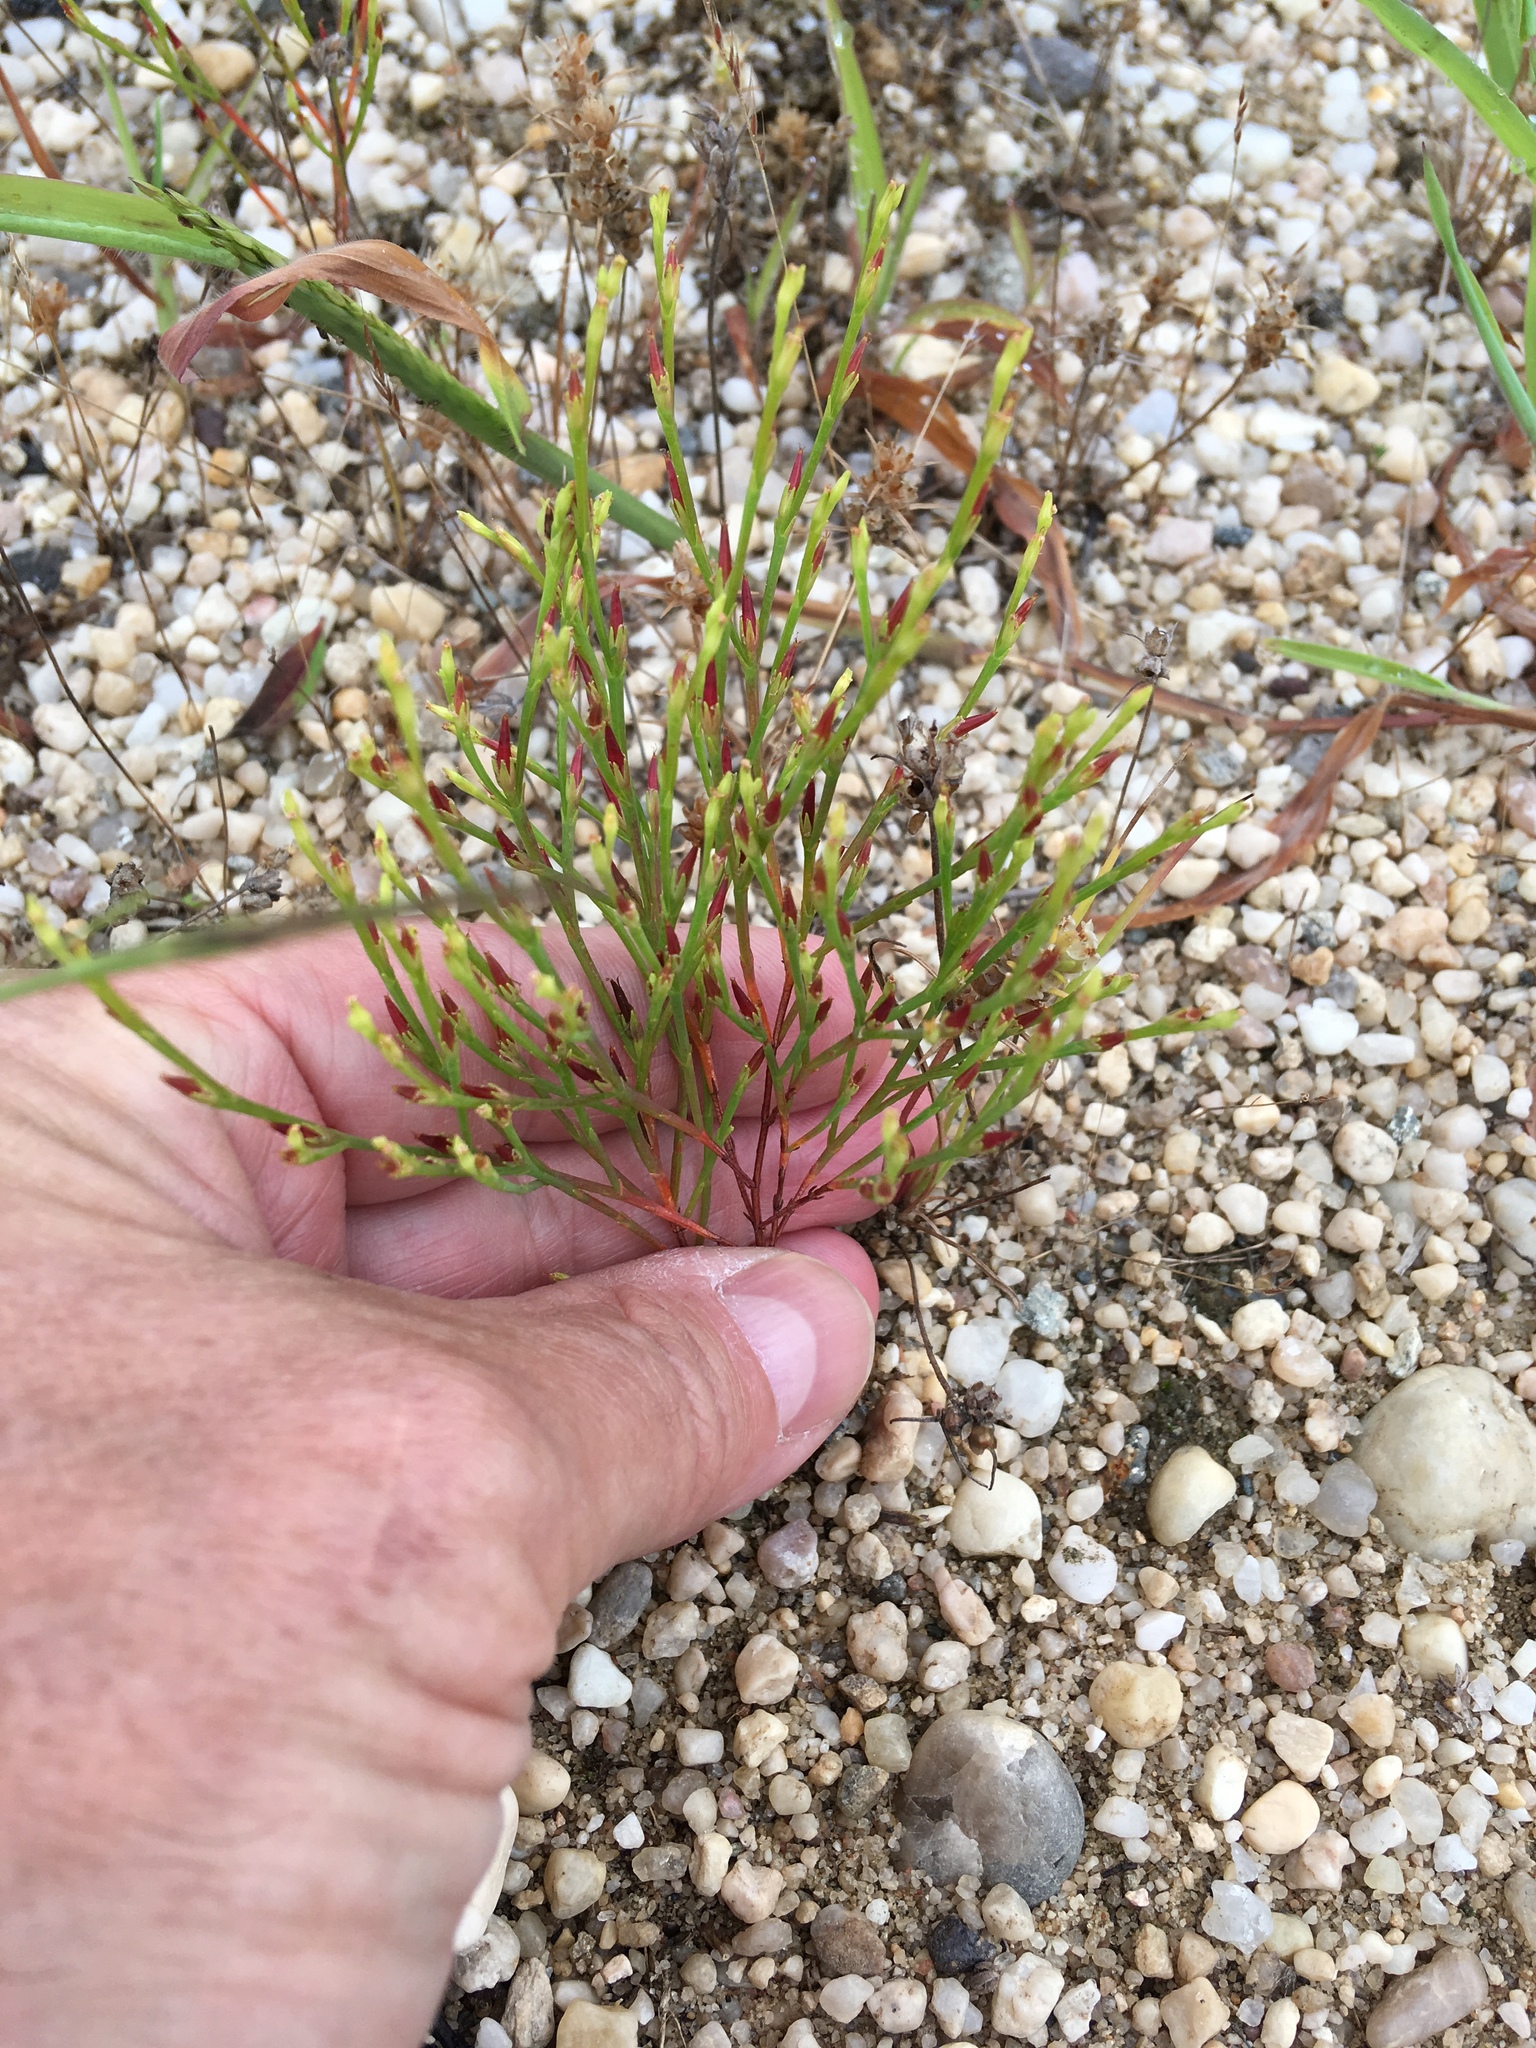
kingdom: Plantae
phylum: Tracheophyta
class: Magnoliopsida
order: Malpighiales
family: Hypericaceae
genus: Hypericum
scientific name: Hypericum gentianoides
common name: Gentian-leaved st. john's-wort
